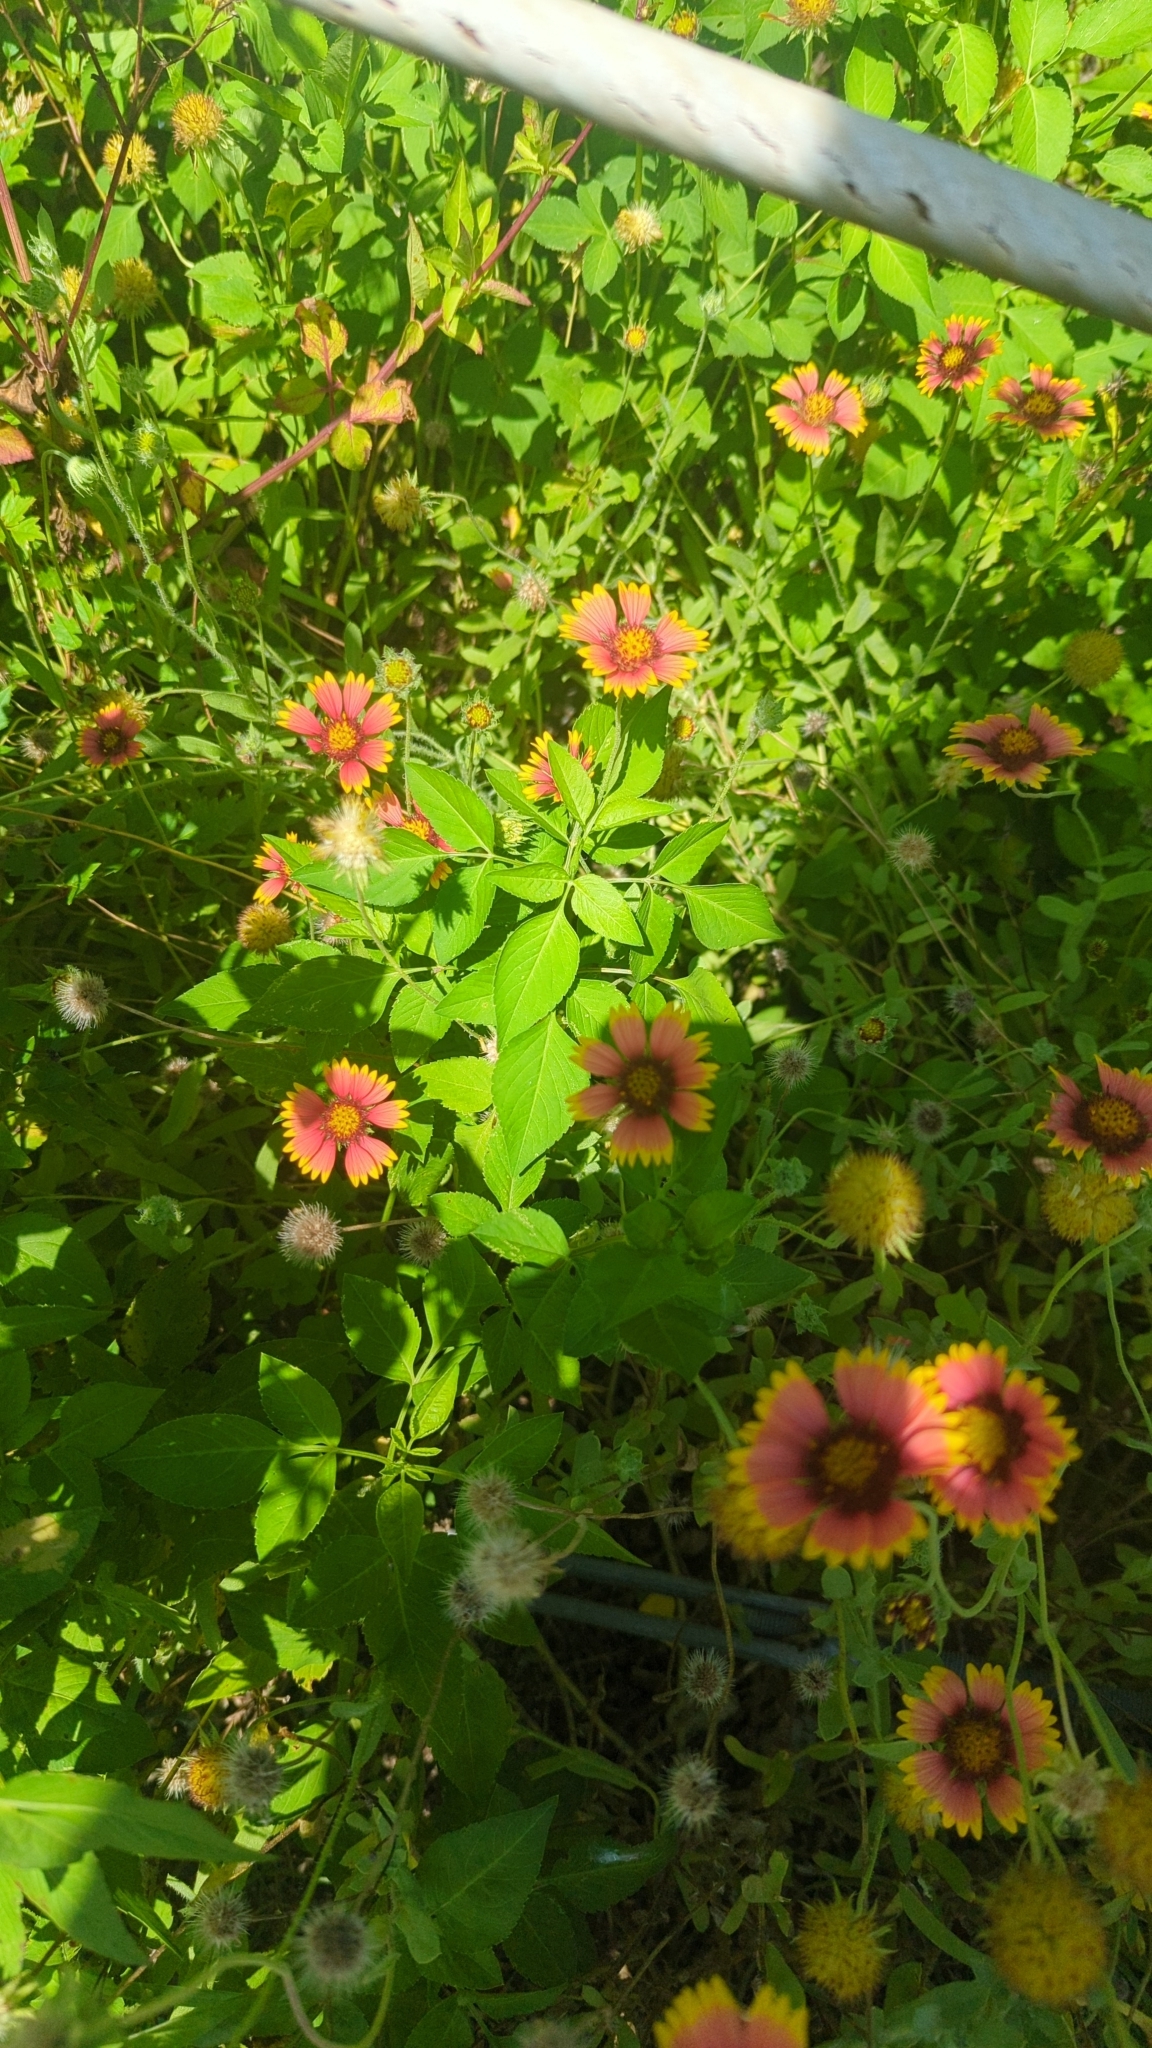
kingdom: Plantae
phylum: Tracheophyta
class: Magnoliopsida
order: Asterales
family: Asteraceae
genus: Gaillardia
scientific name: Gaillardia pulchella
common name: Firewheel
